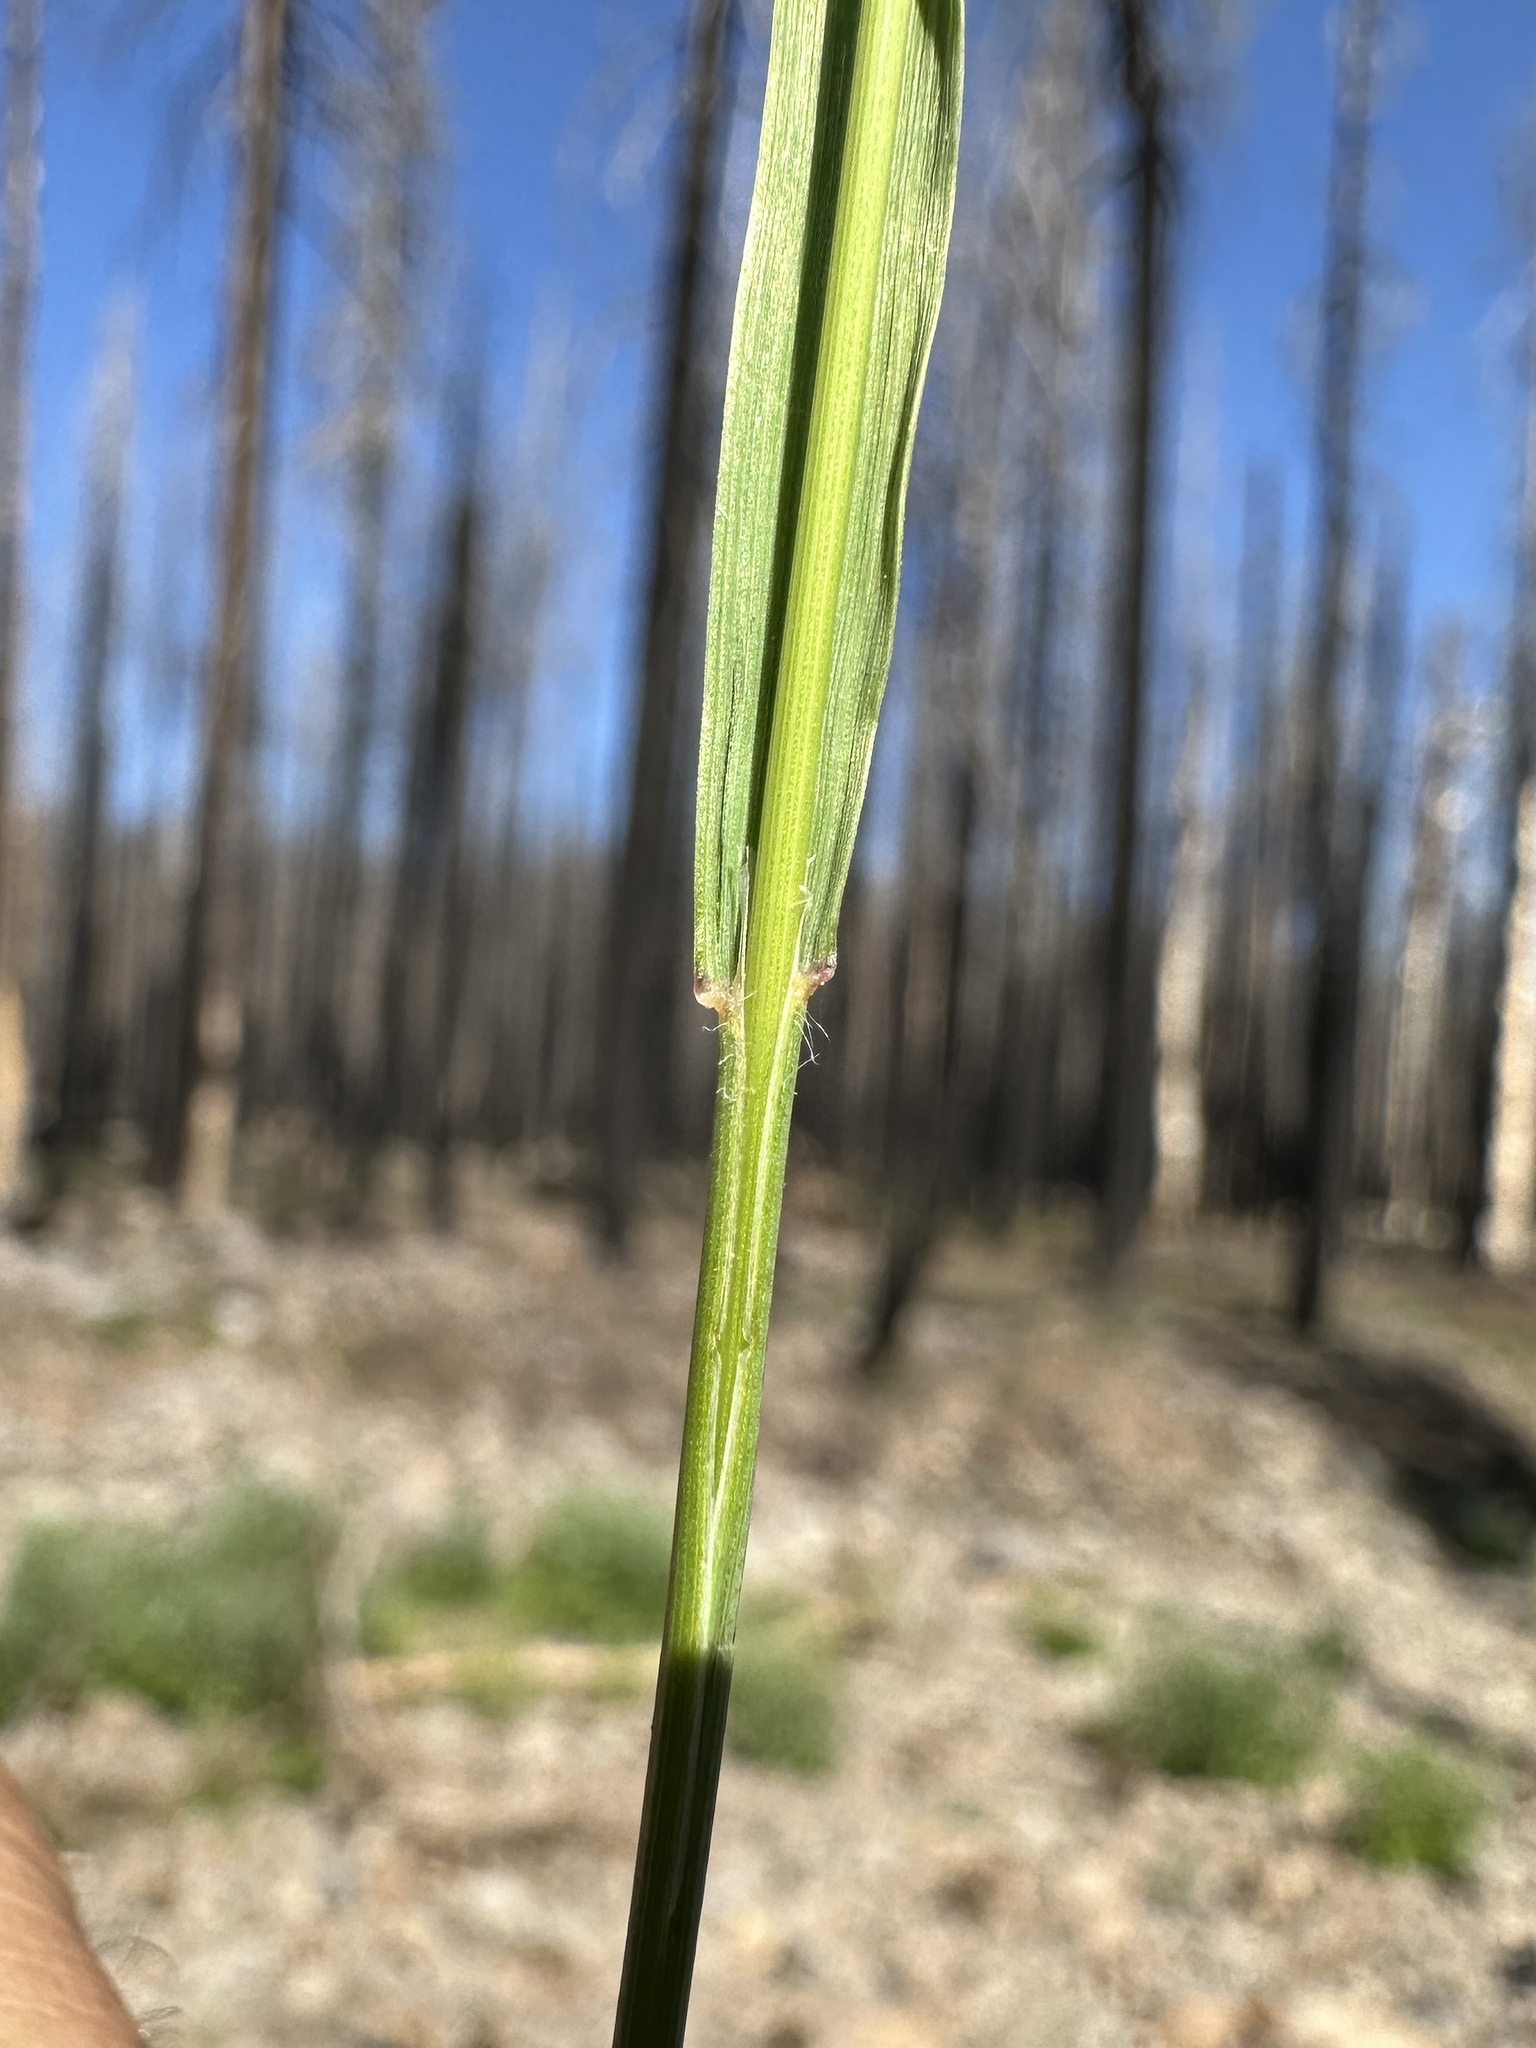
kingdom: Plantae
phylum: Tracheophyta
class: Liliopsida
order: Poales
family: Poaceae
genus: Bromus
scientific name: Bromus carinatus
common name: Mountain brome
